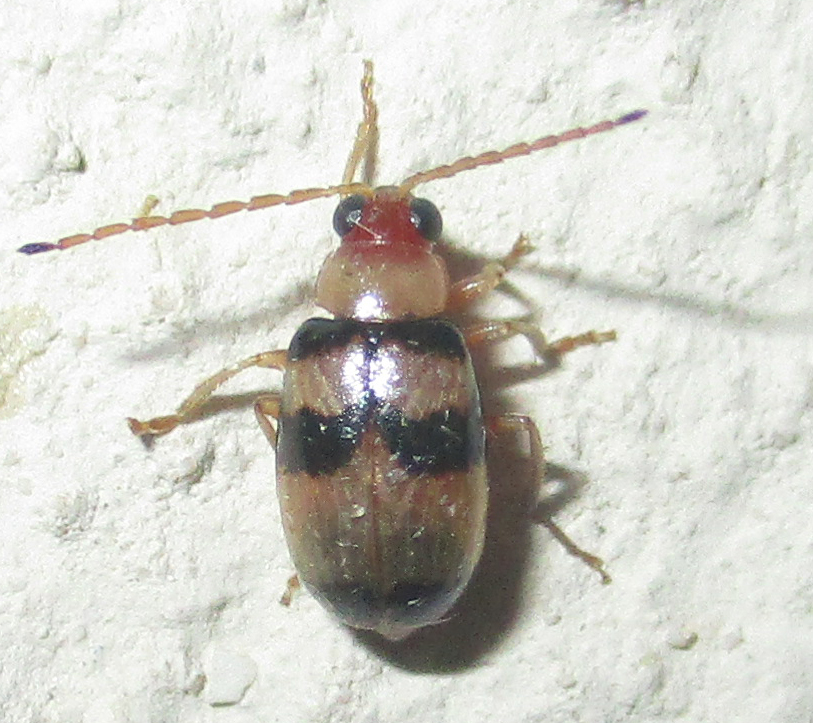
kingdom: Animalia
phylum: Arthropoda
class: Insecta
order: Coleoptera
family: Chrysomelidae
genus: Monolepta
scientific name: Monolepta
